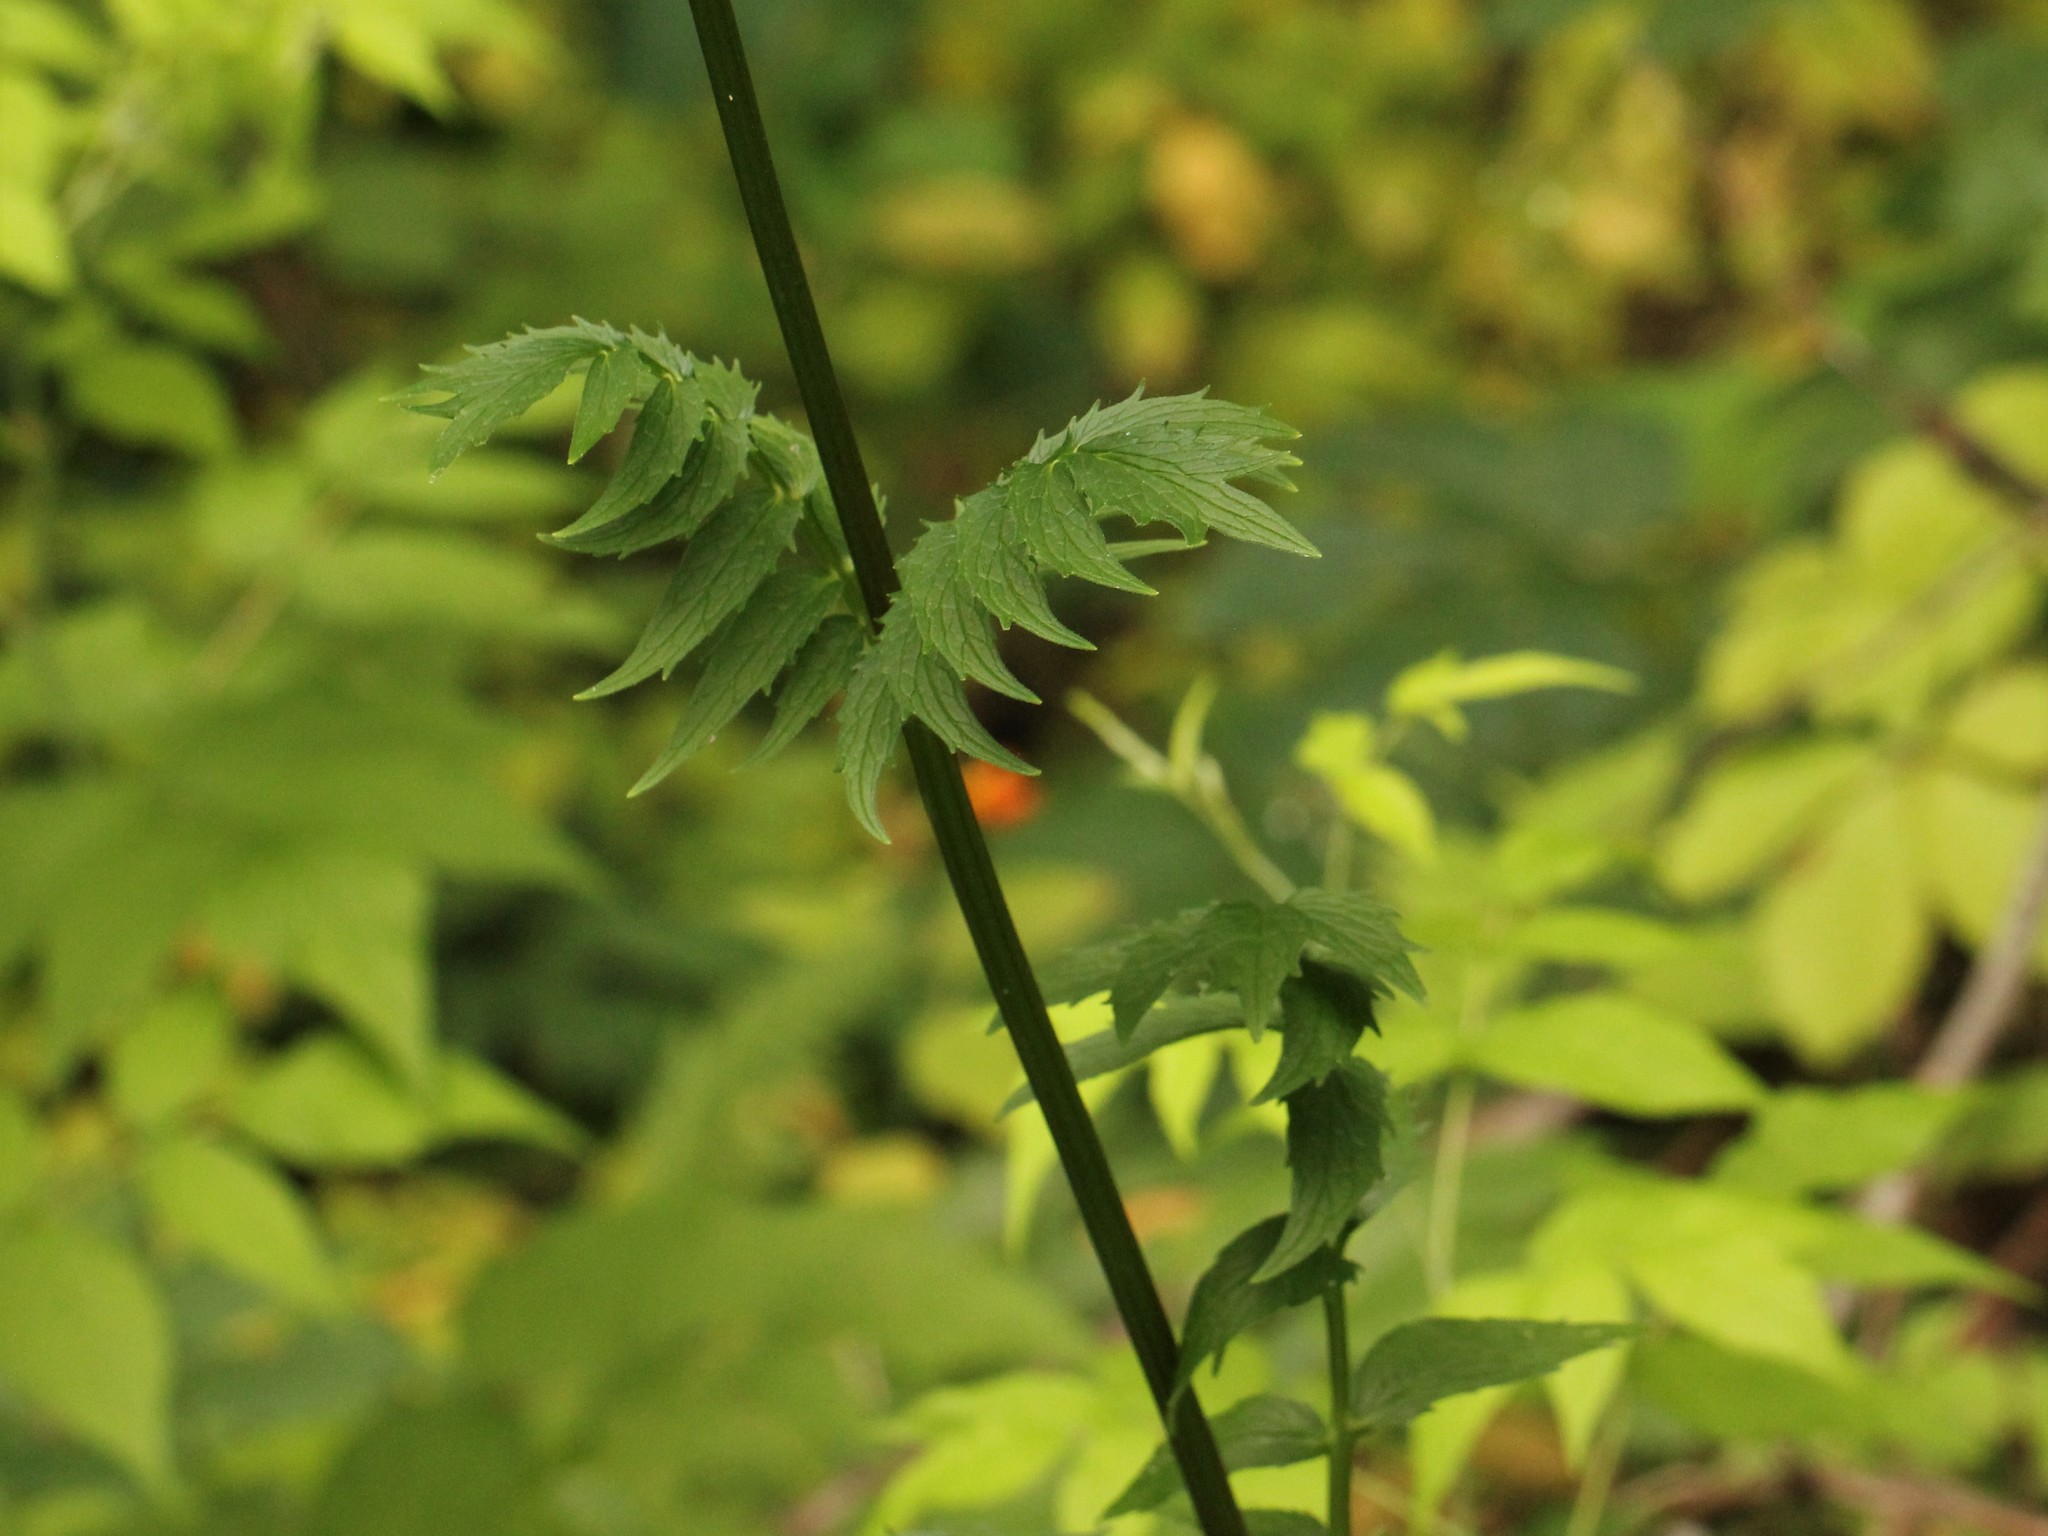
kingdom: Plantae
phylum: Tracheophyta
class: Magnoliopsida
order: Dipsacales
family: Caprifoliaceae
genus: Valeriana
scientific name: Valeriana officinalis
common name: Common valerian
